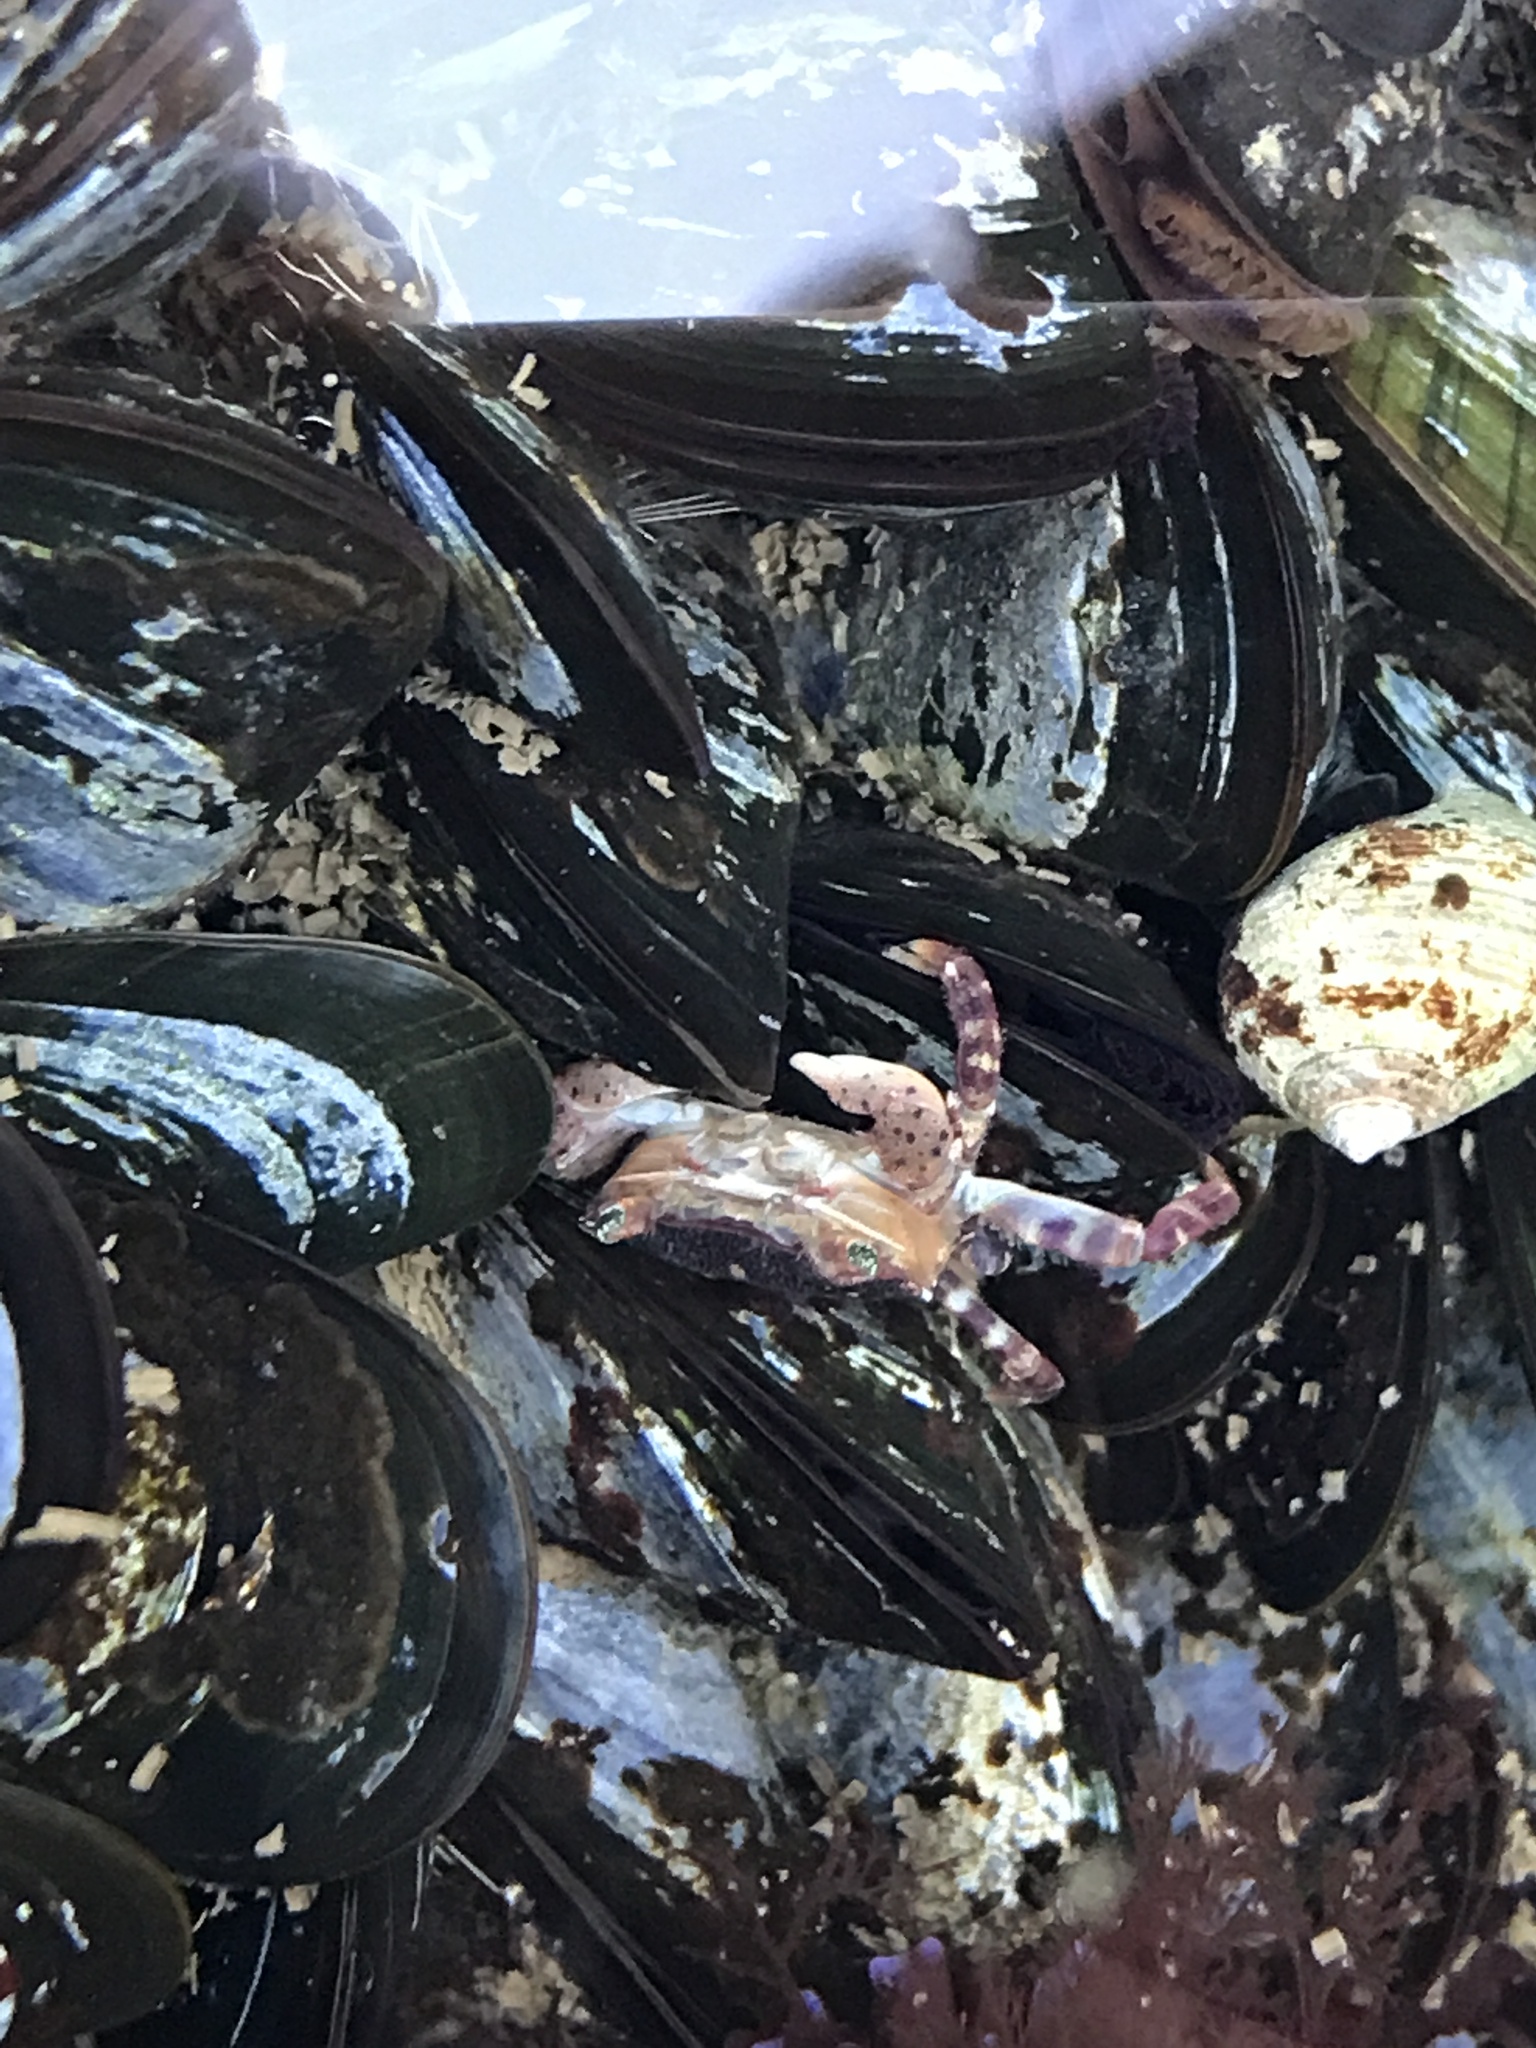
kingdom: Animalia
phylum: Arthropoda
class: Malacostraca
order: Decapoda
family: Varunidae
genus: Hemigrapsus
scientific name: Hemigrapsus sanguineus
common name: Asian shore crab
